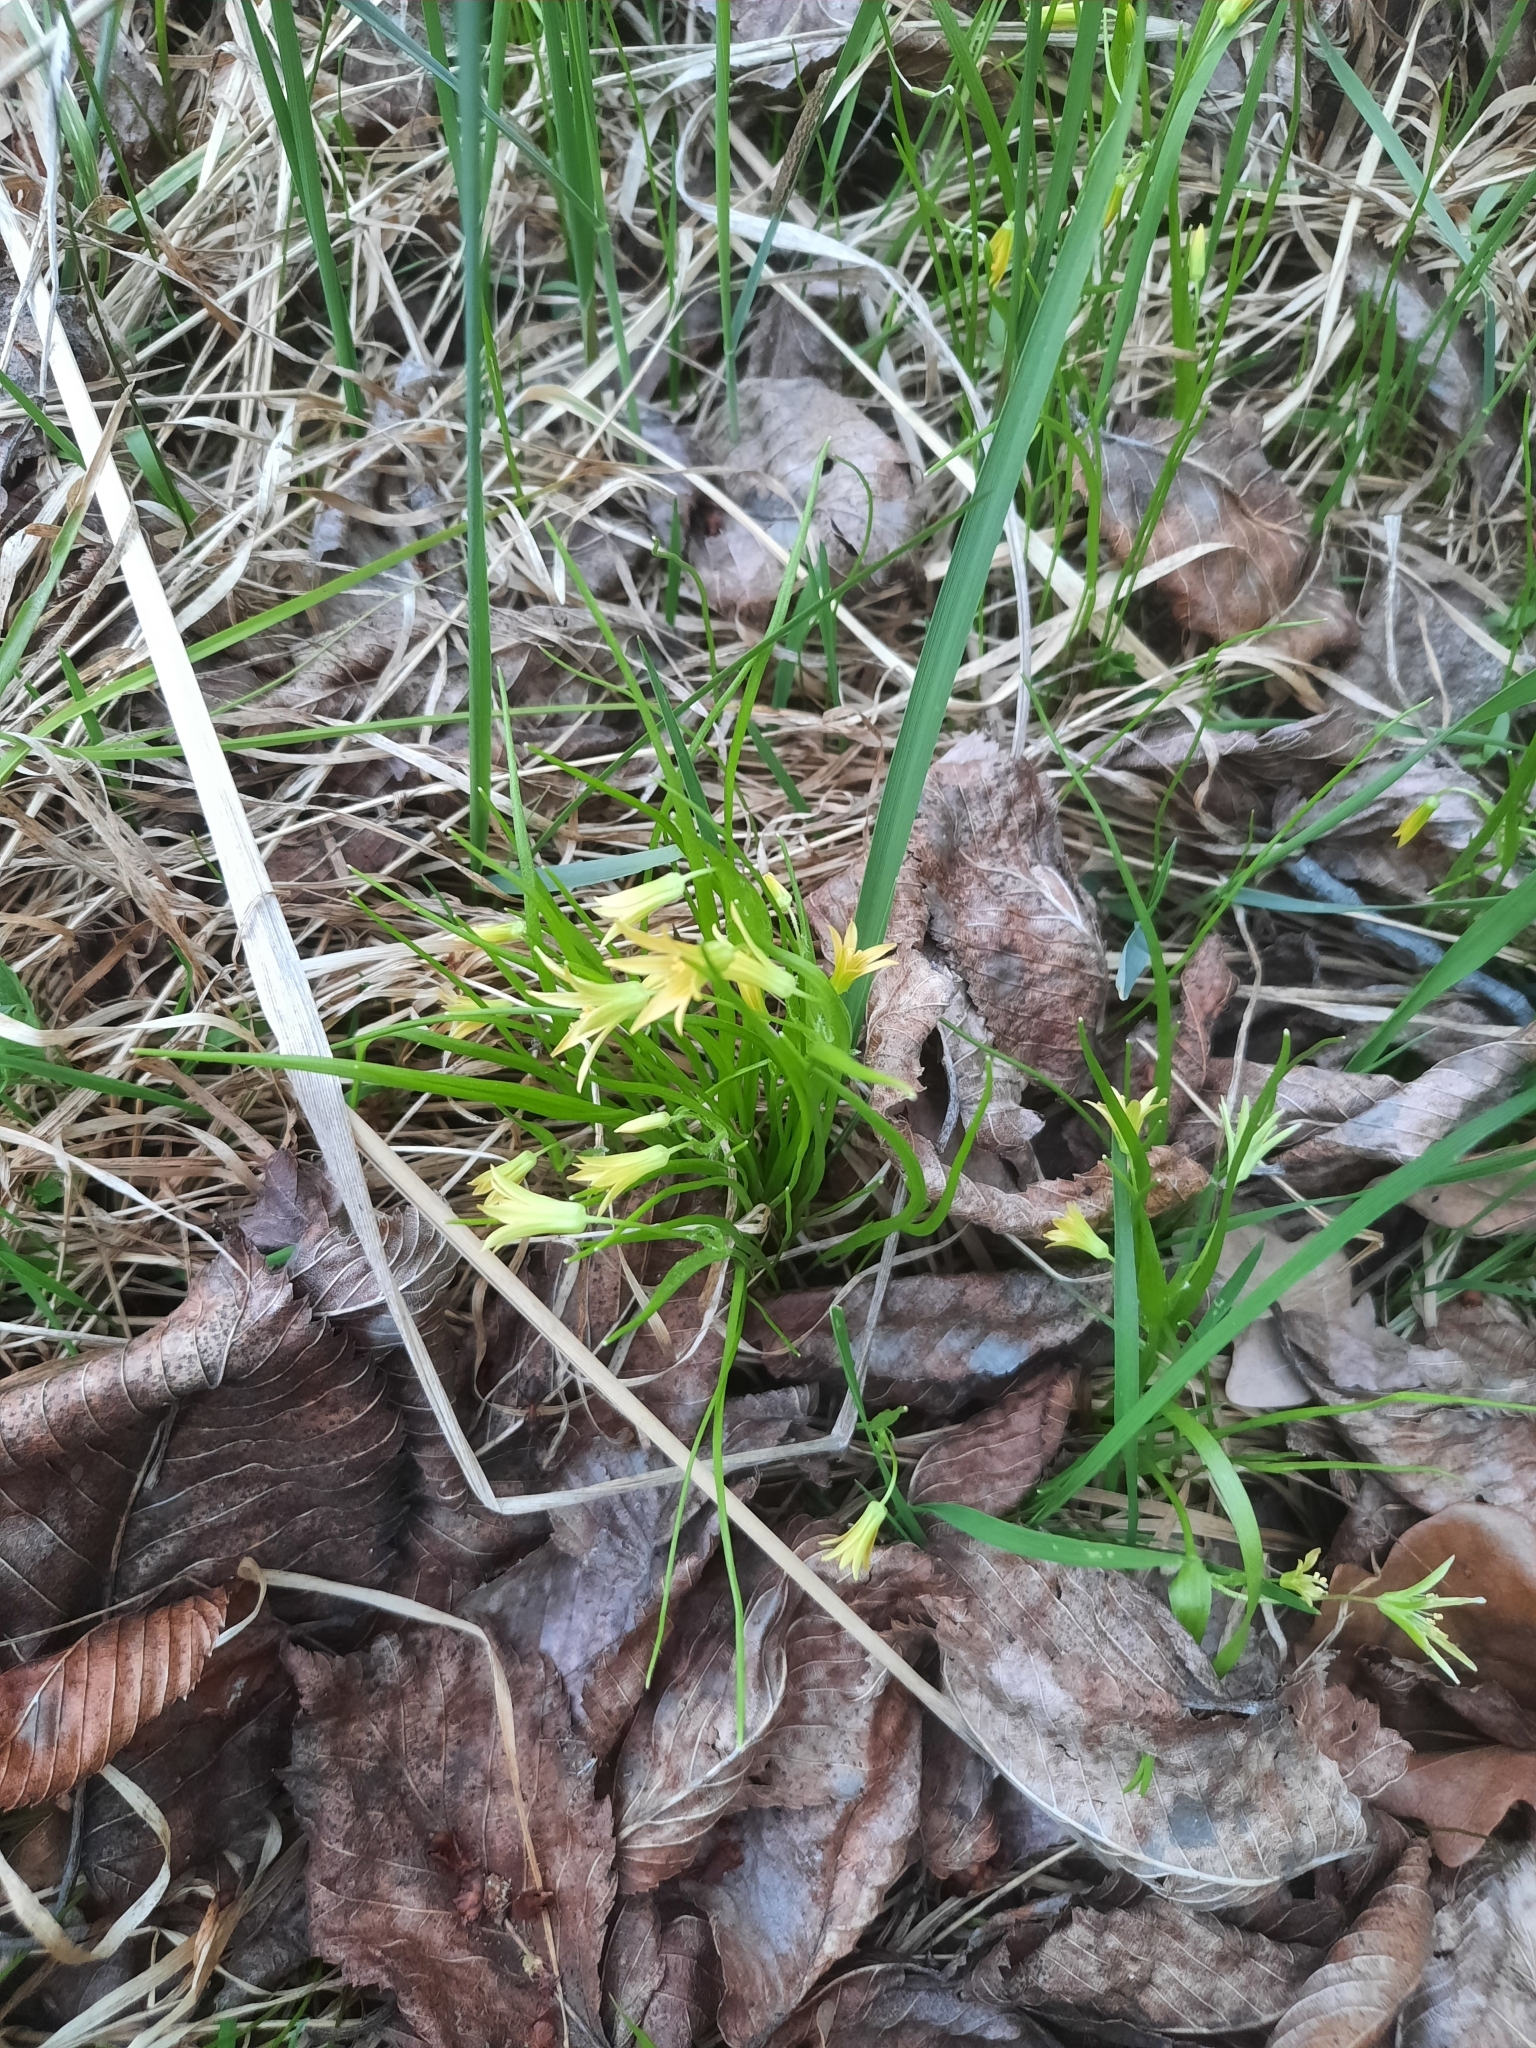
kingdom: Plantae
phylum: Tracheophyta
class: Liliopsida
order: Liliales
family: Liliaceae
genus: Gagea
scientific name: Gagea minima
